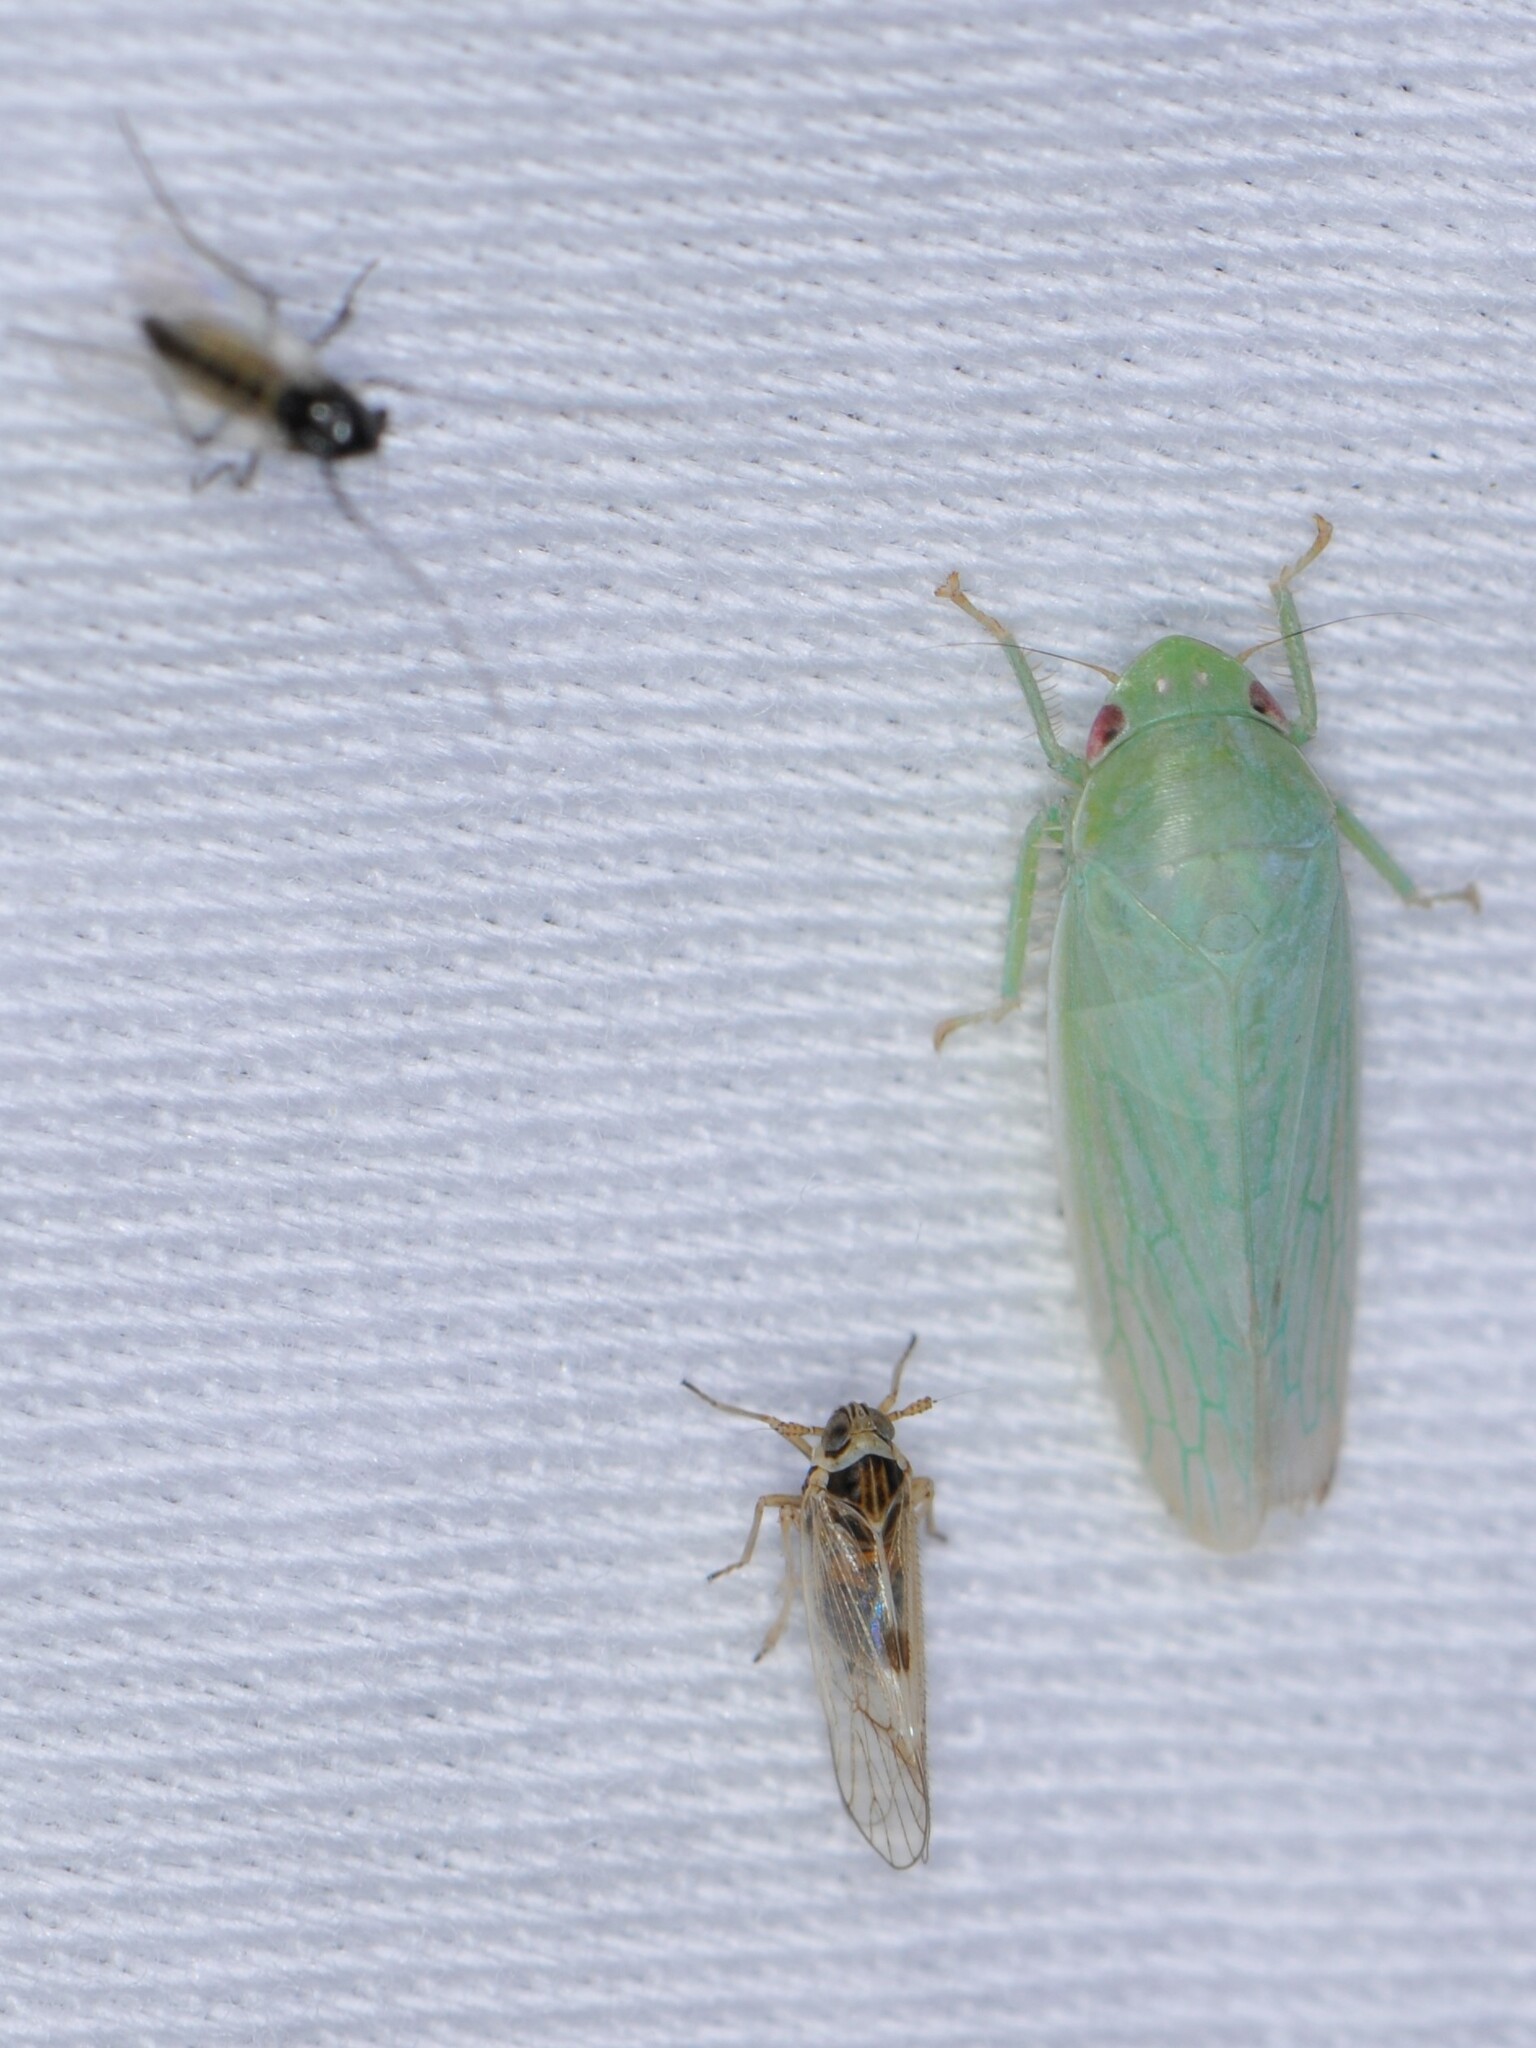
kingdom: Animalia
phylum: Arthropoda
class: Insecta
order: Hemiptera
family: Delphacidae
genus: Chionomus
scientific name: Chionomus
